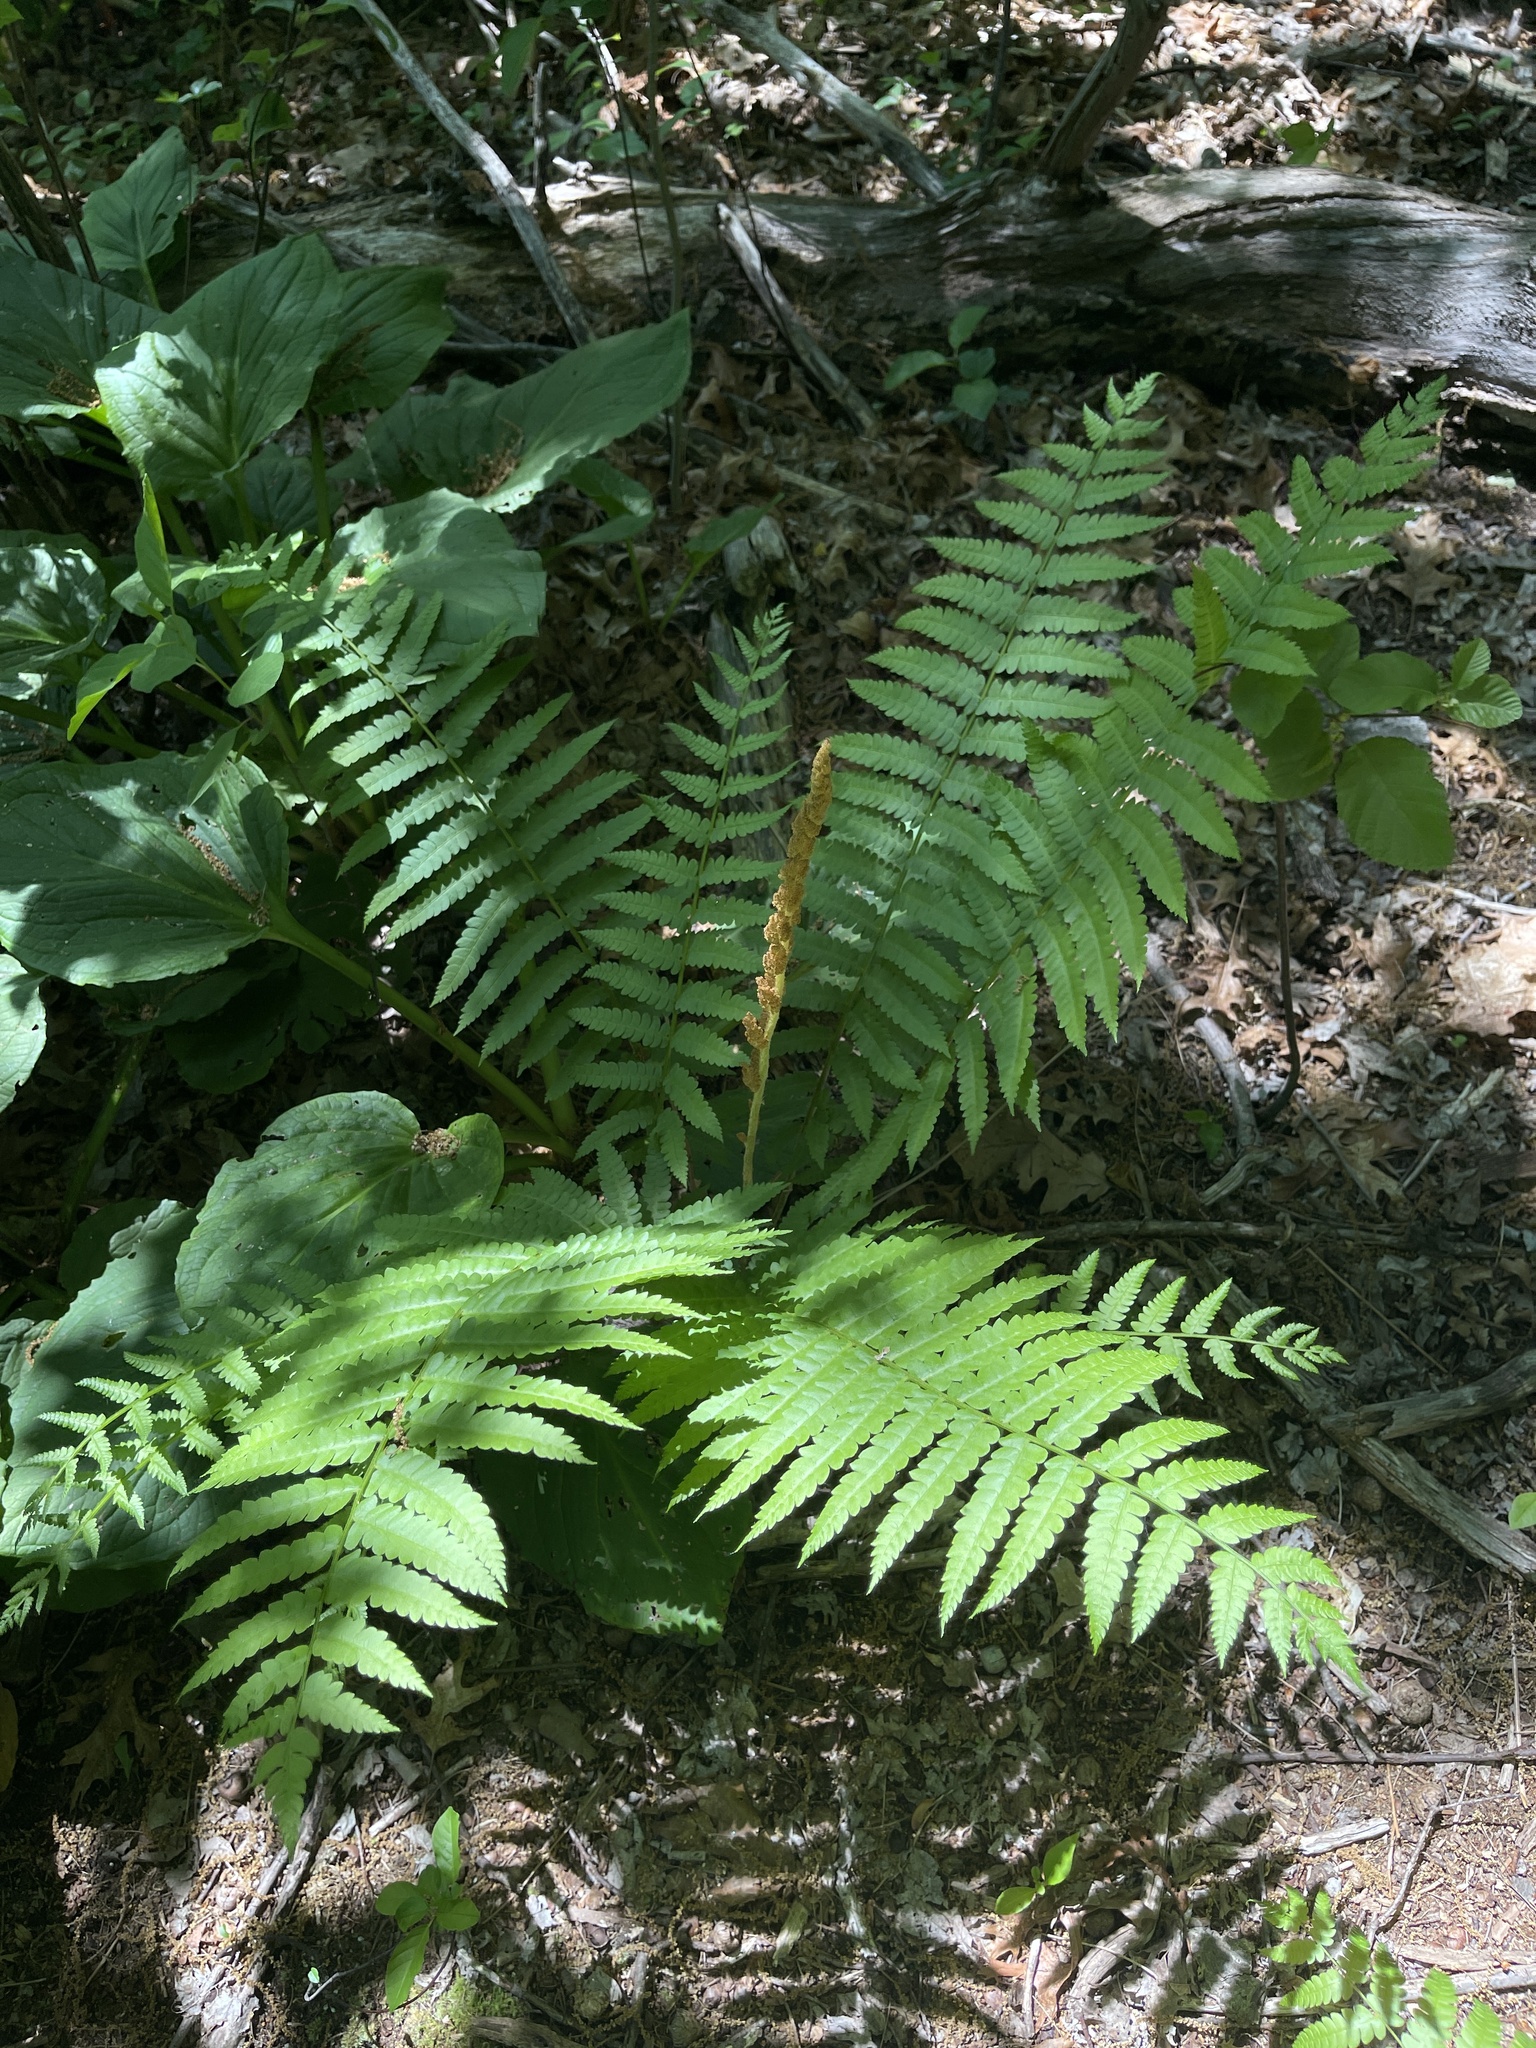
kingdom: Plantae
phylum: Tracheophyta
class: Polypodiopsida
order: Osmundales
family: Osmundaceae
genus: Osmundastrum
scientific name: Osmundastrum cinnamomeum
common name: Cinnamon fern
